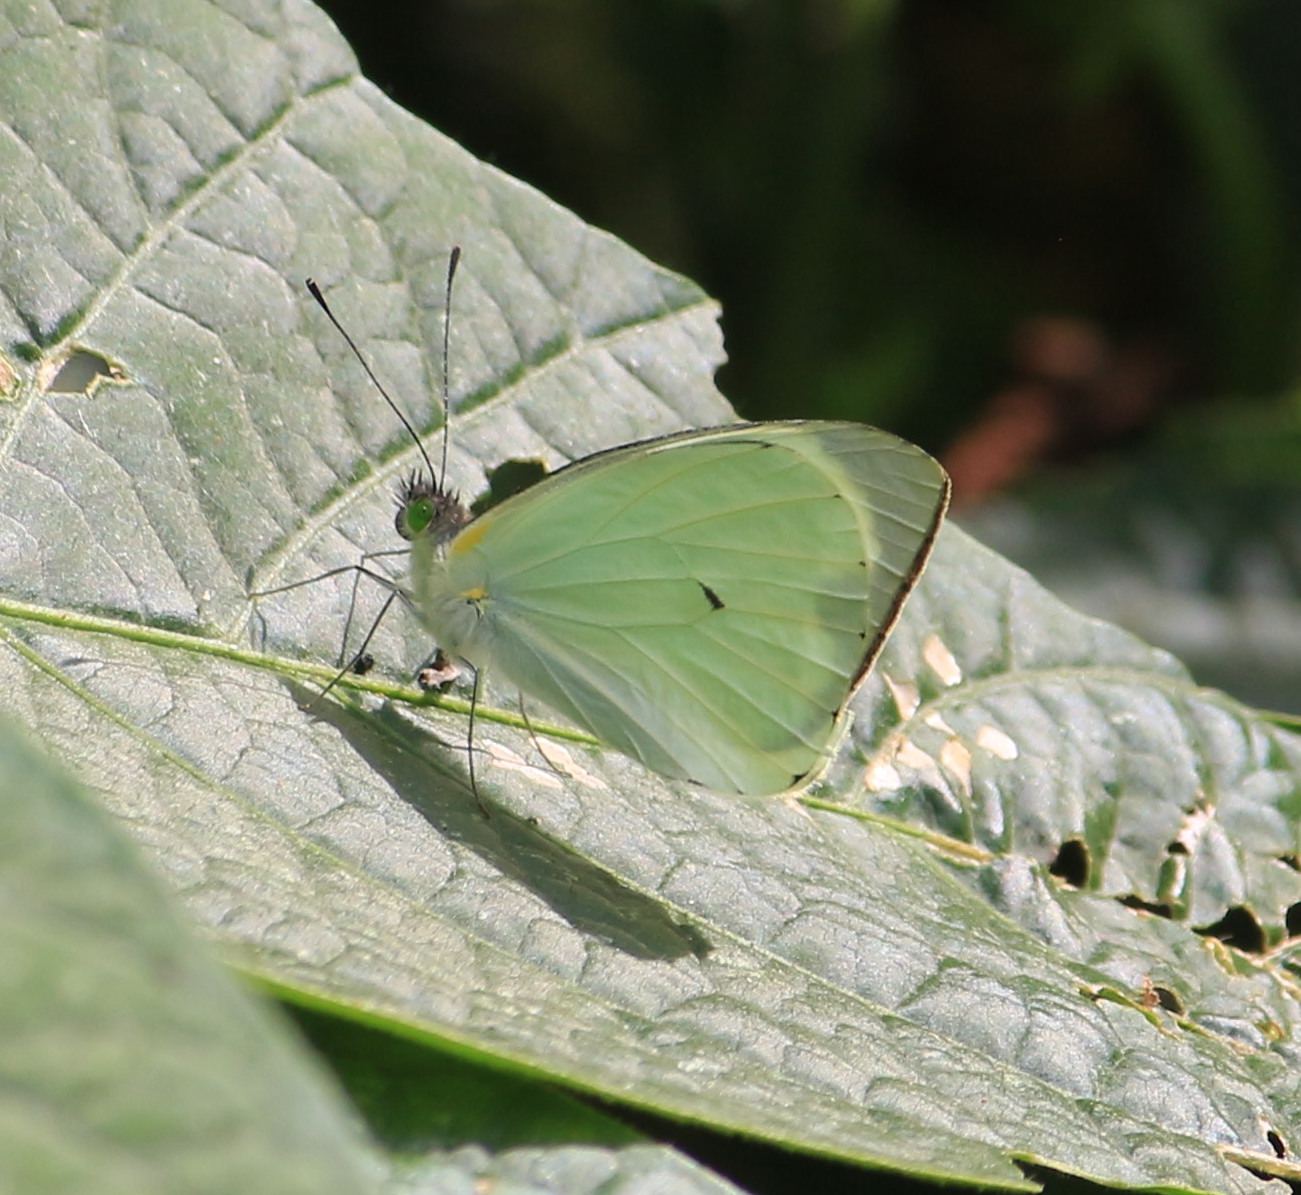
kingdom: Animalia
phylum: Arthropoda
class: Insecta
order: Lepidoptera
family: Pieridae
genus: Leptophobia
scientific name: Leptophobia aripa
